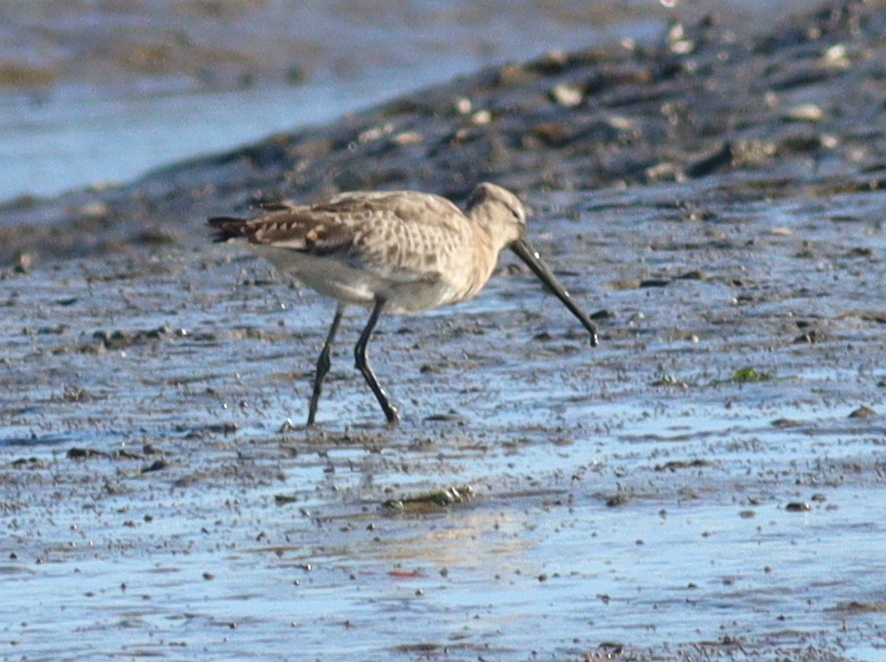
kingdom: Animalia
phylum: Chordata
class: Aves
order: Charadriiformes
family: Scolopacidae
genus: Limosa
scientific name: Limosa limosa
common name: Black-tailed godwit
